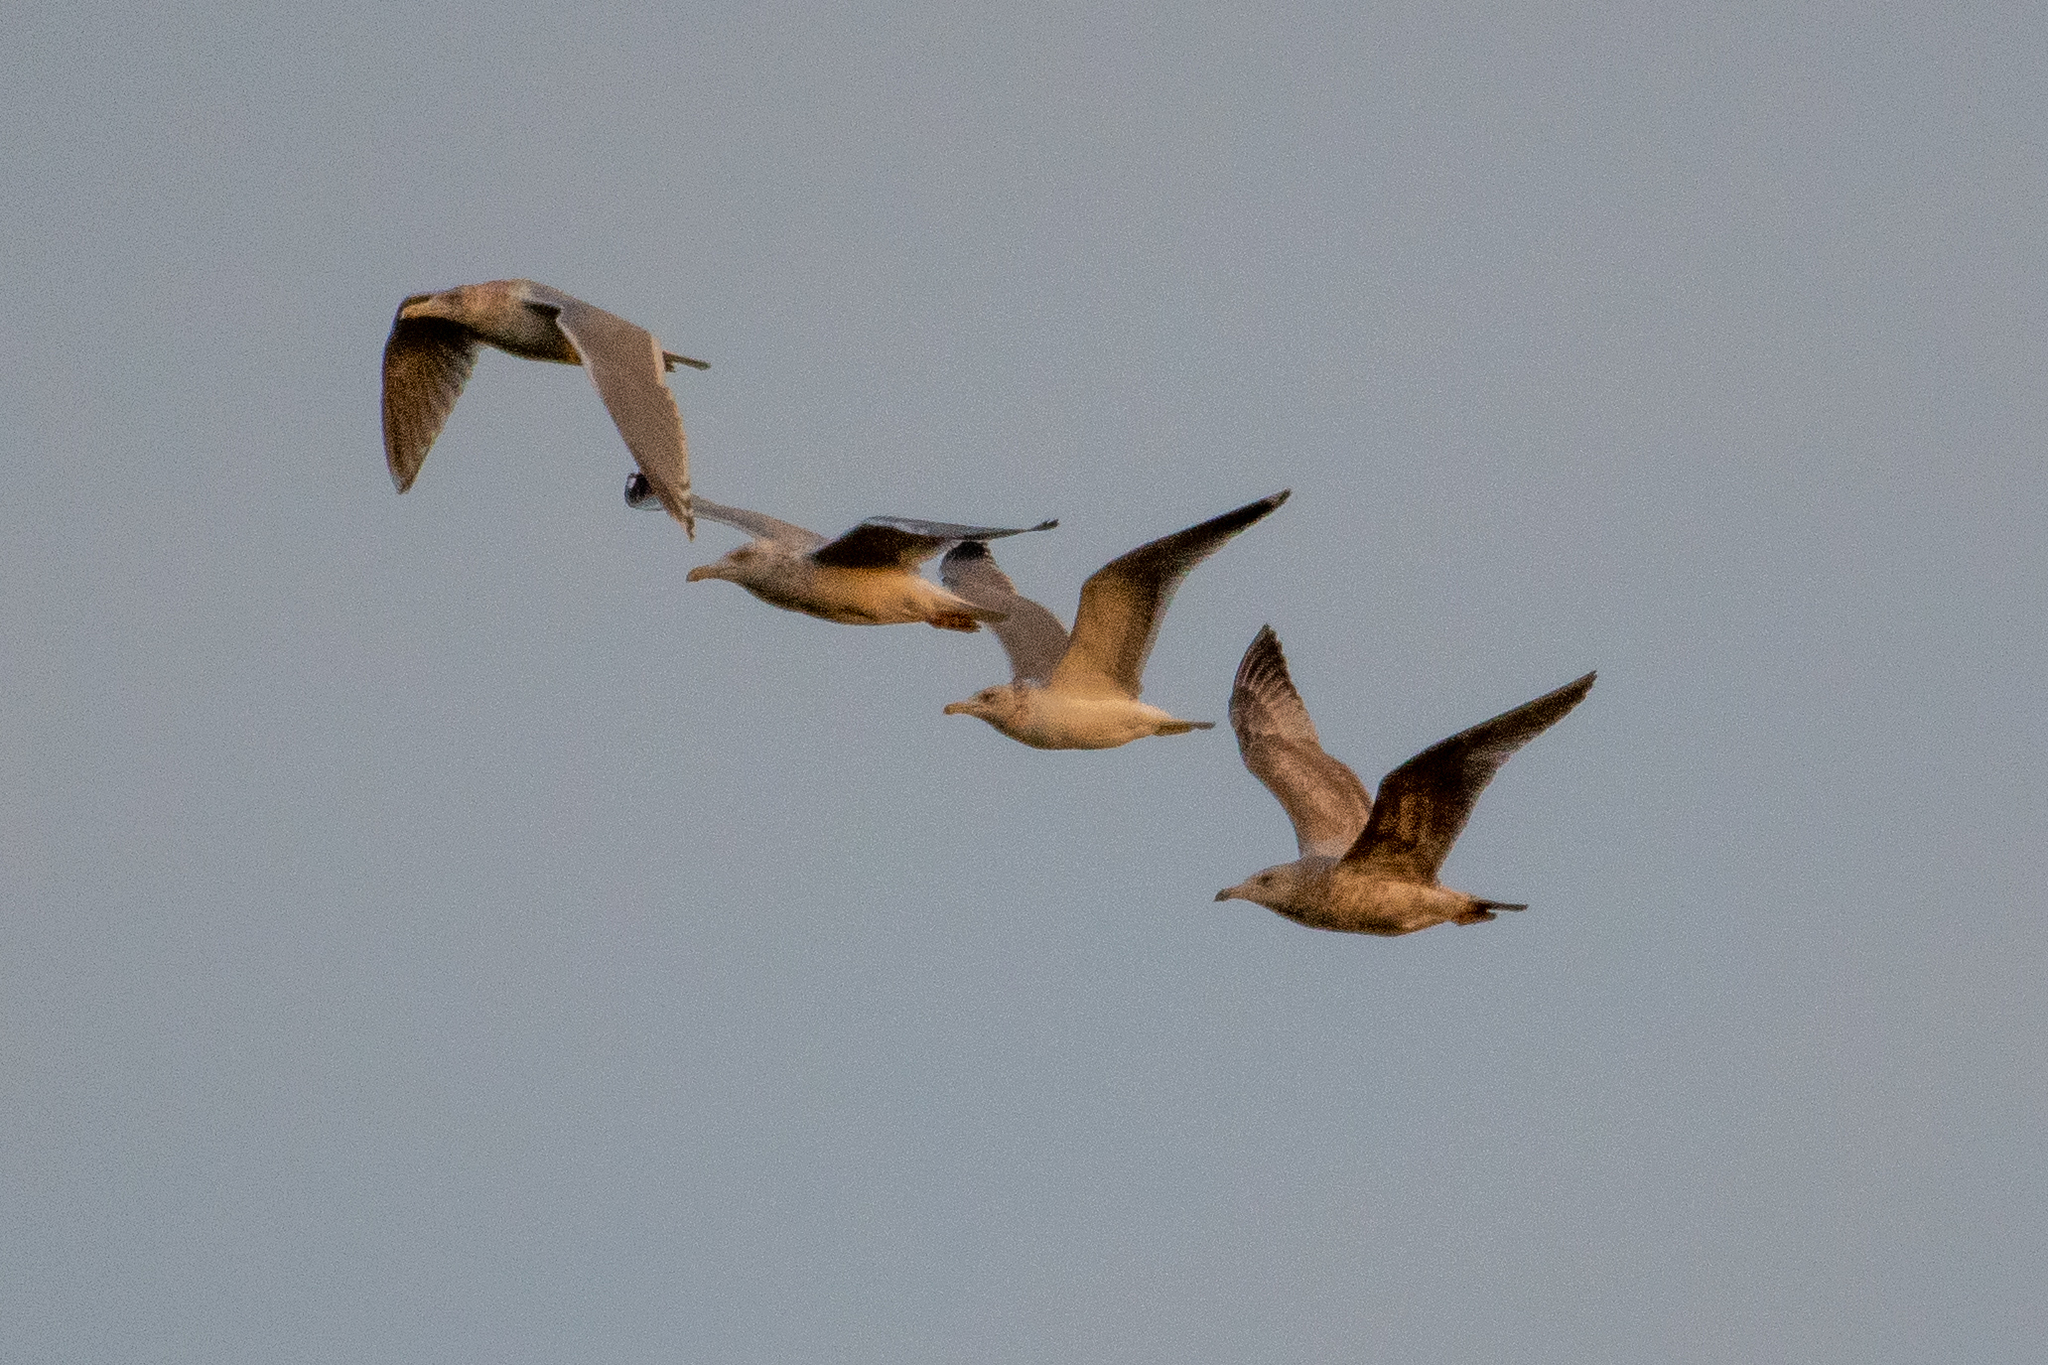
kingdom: Animalia
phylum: Chordata
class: Aves
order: Charadriiformes
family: Laridae
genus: Larus
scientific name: Larus argentatus
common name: Herring gull
